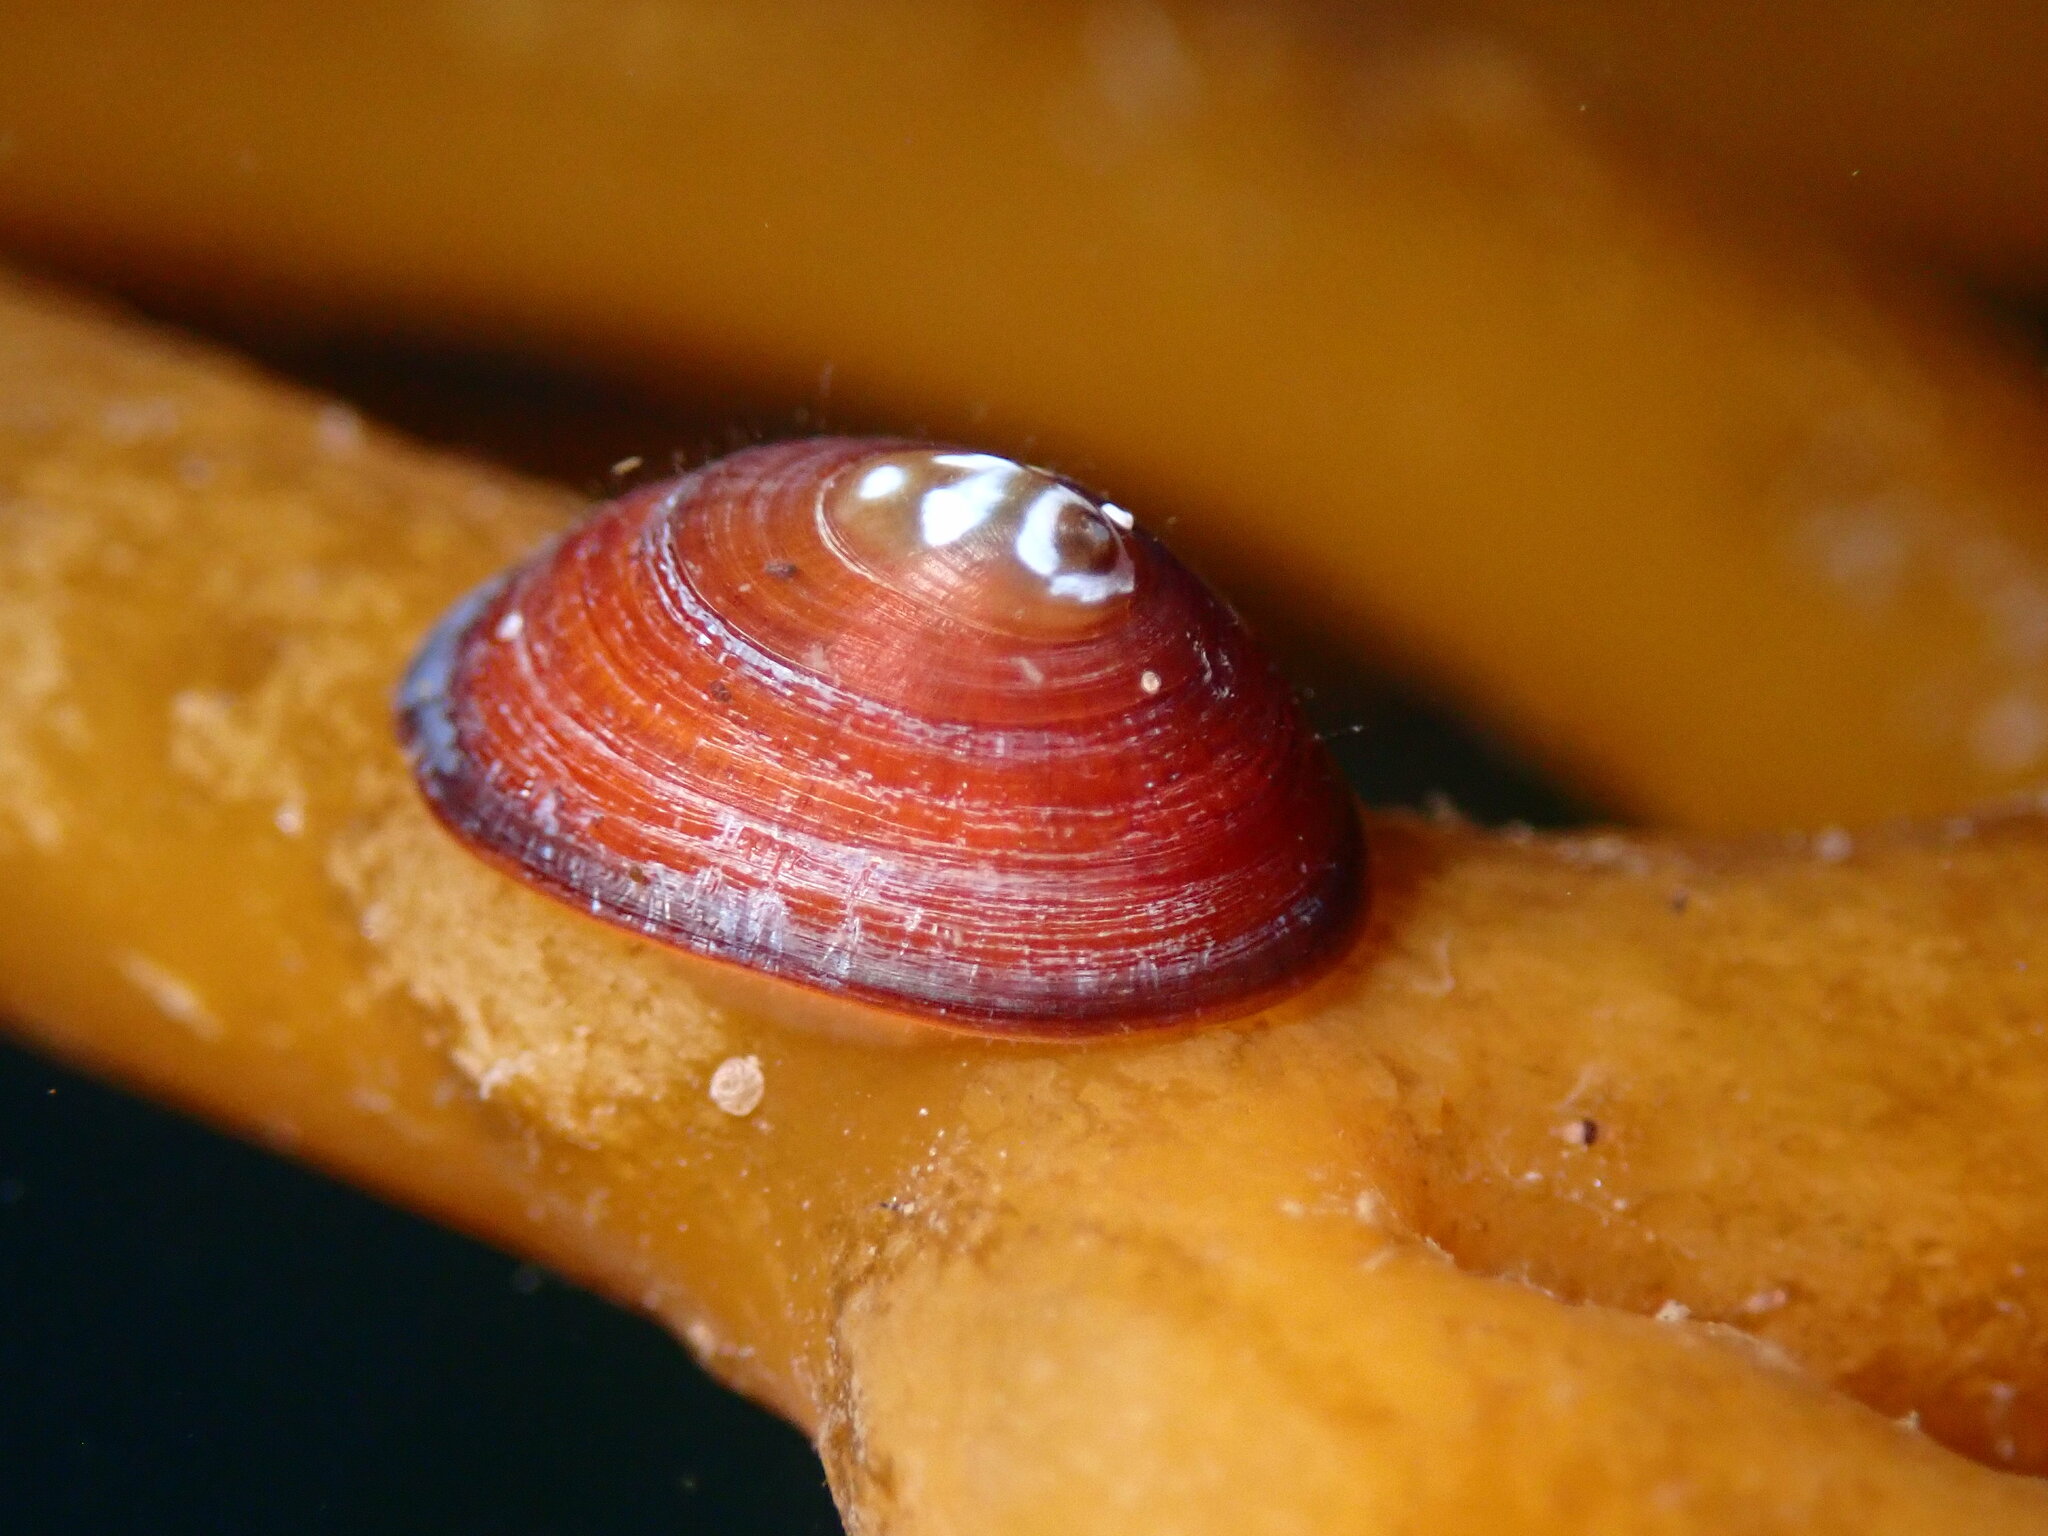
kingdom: Animalia
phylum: Mollusca
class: Gastropoda
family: Lottiidae
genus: Discurria
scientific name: Discurria insessa
